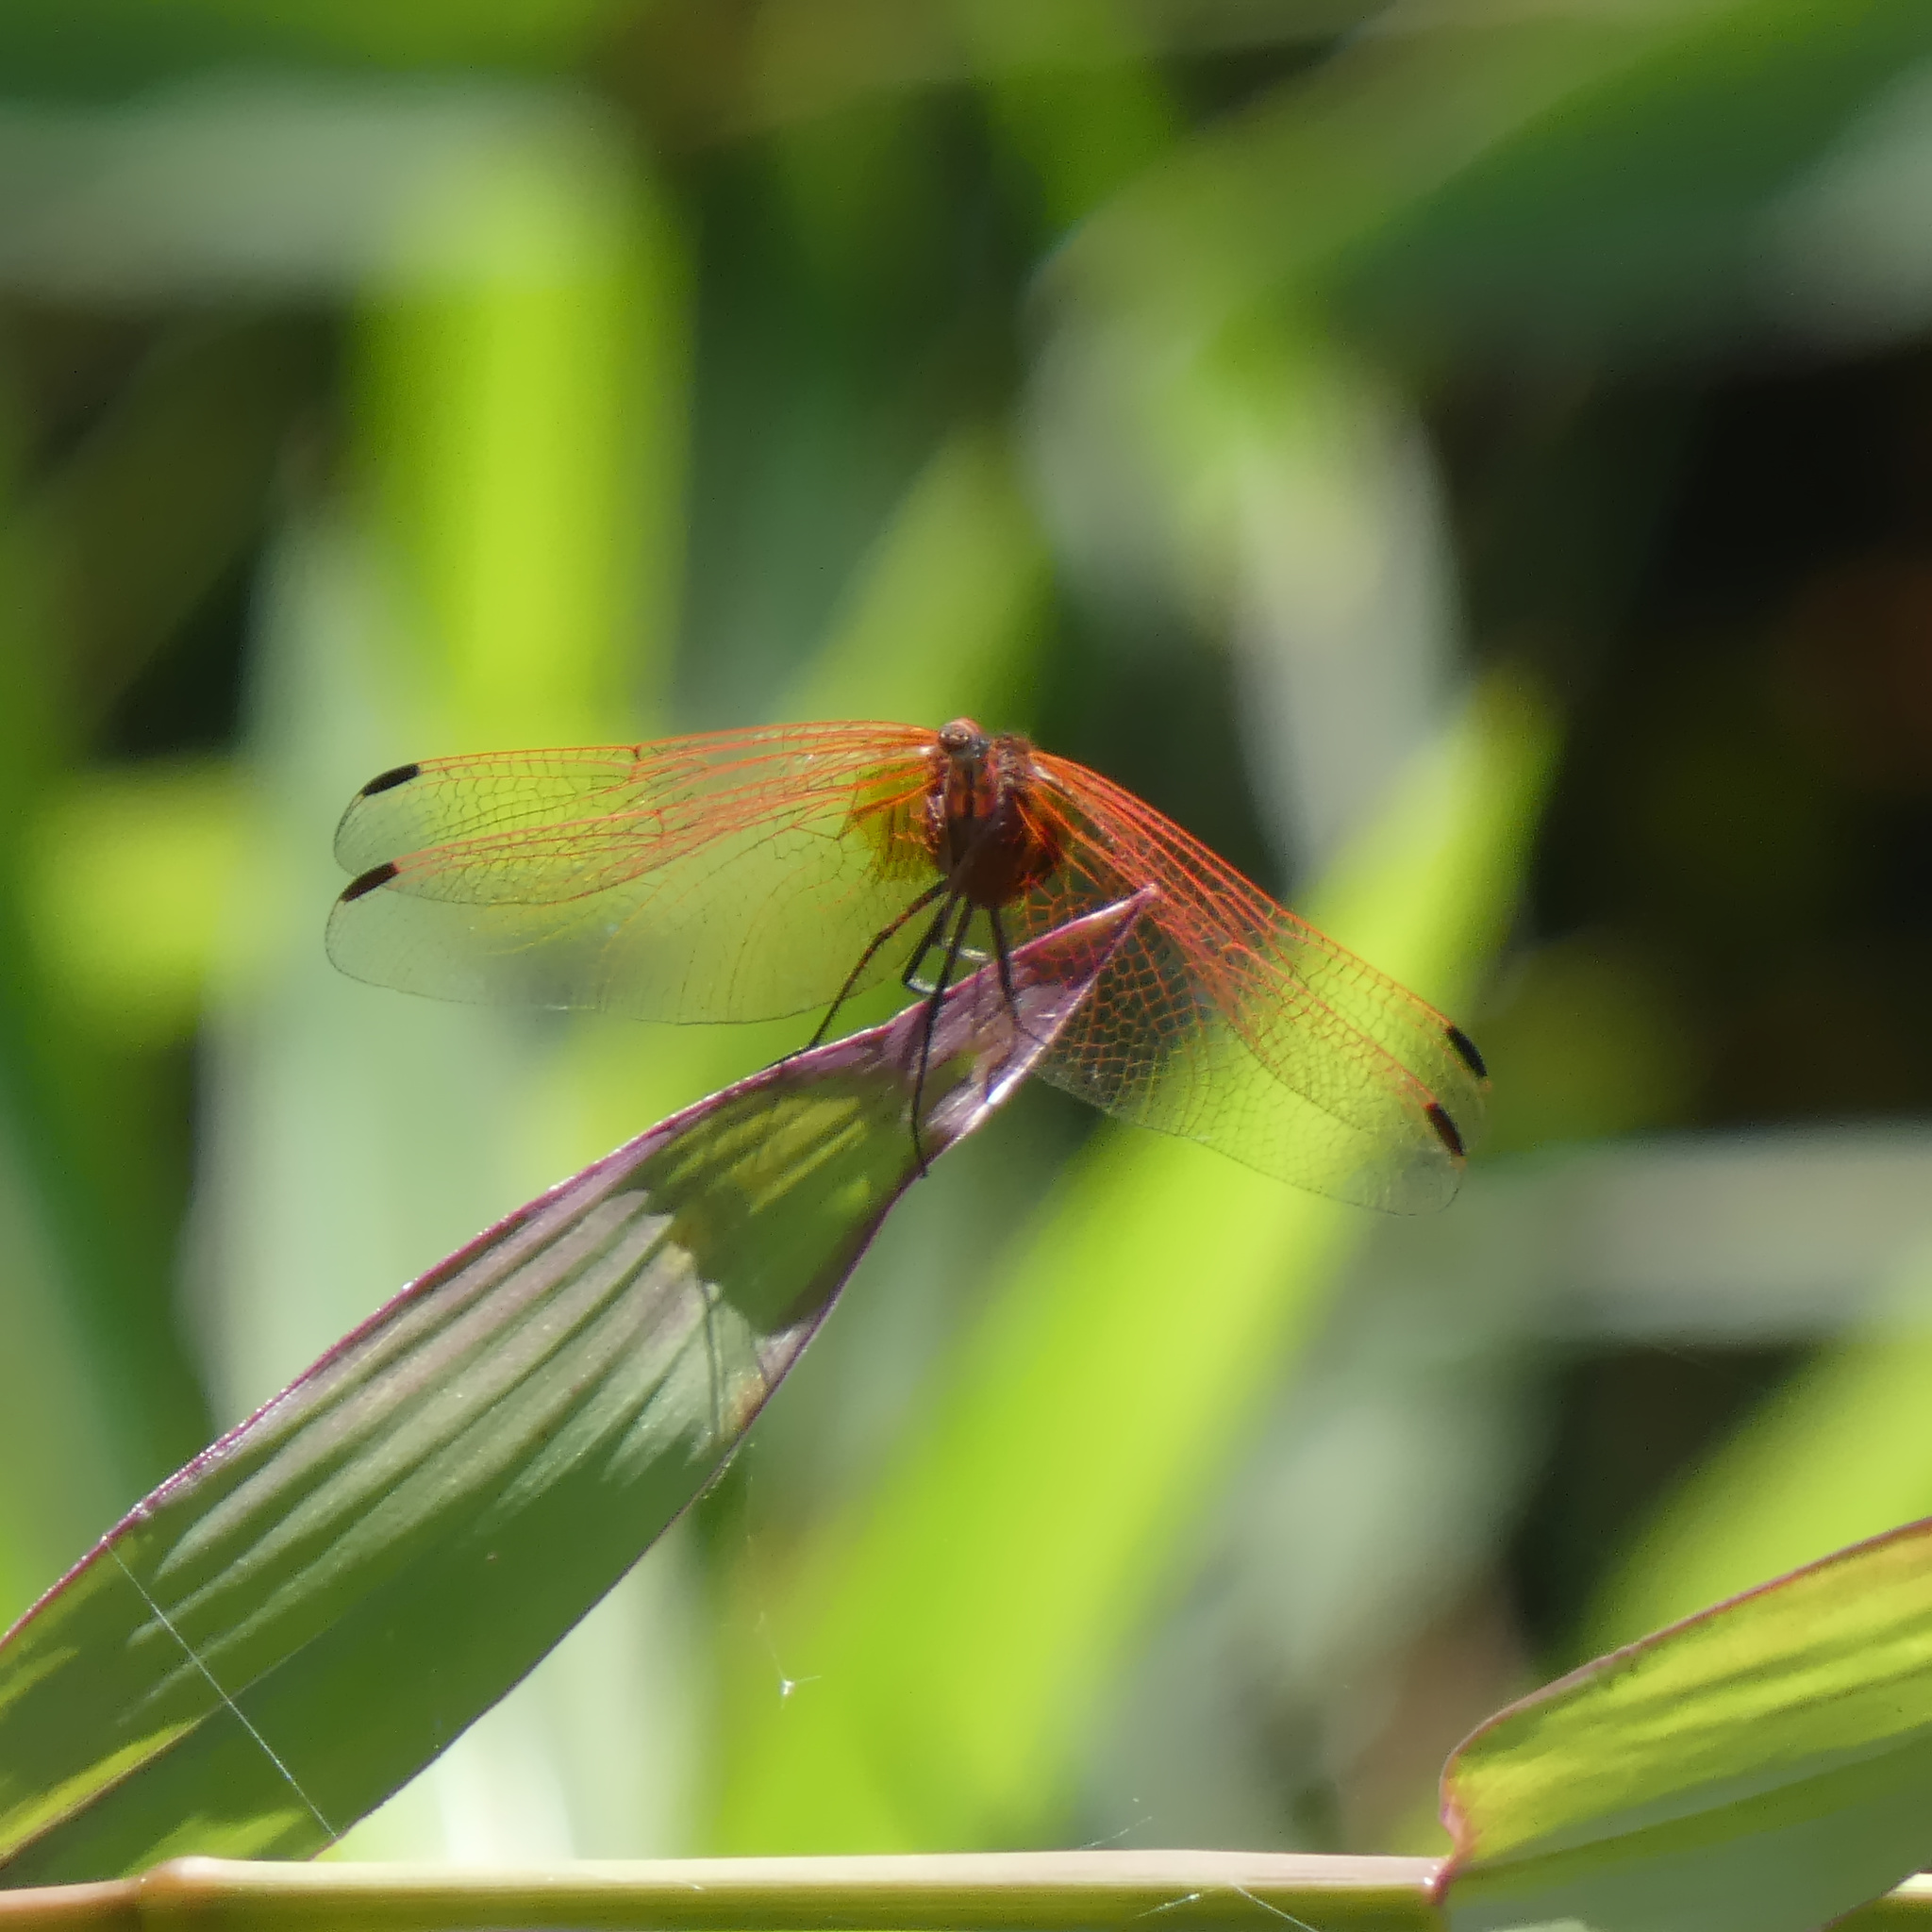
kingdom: Animalia
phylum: Arthropoda
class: Insecta
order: Odonata
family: Libellulidae
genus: Trithemis
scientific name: Trithemis arteriosa
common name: Red-veined dropwing
